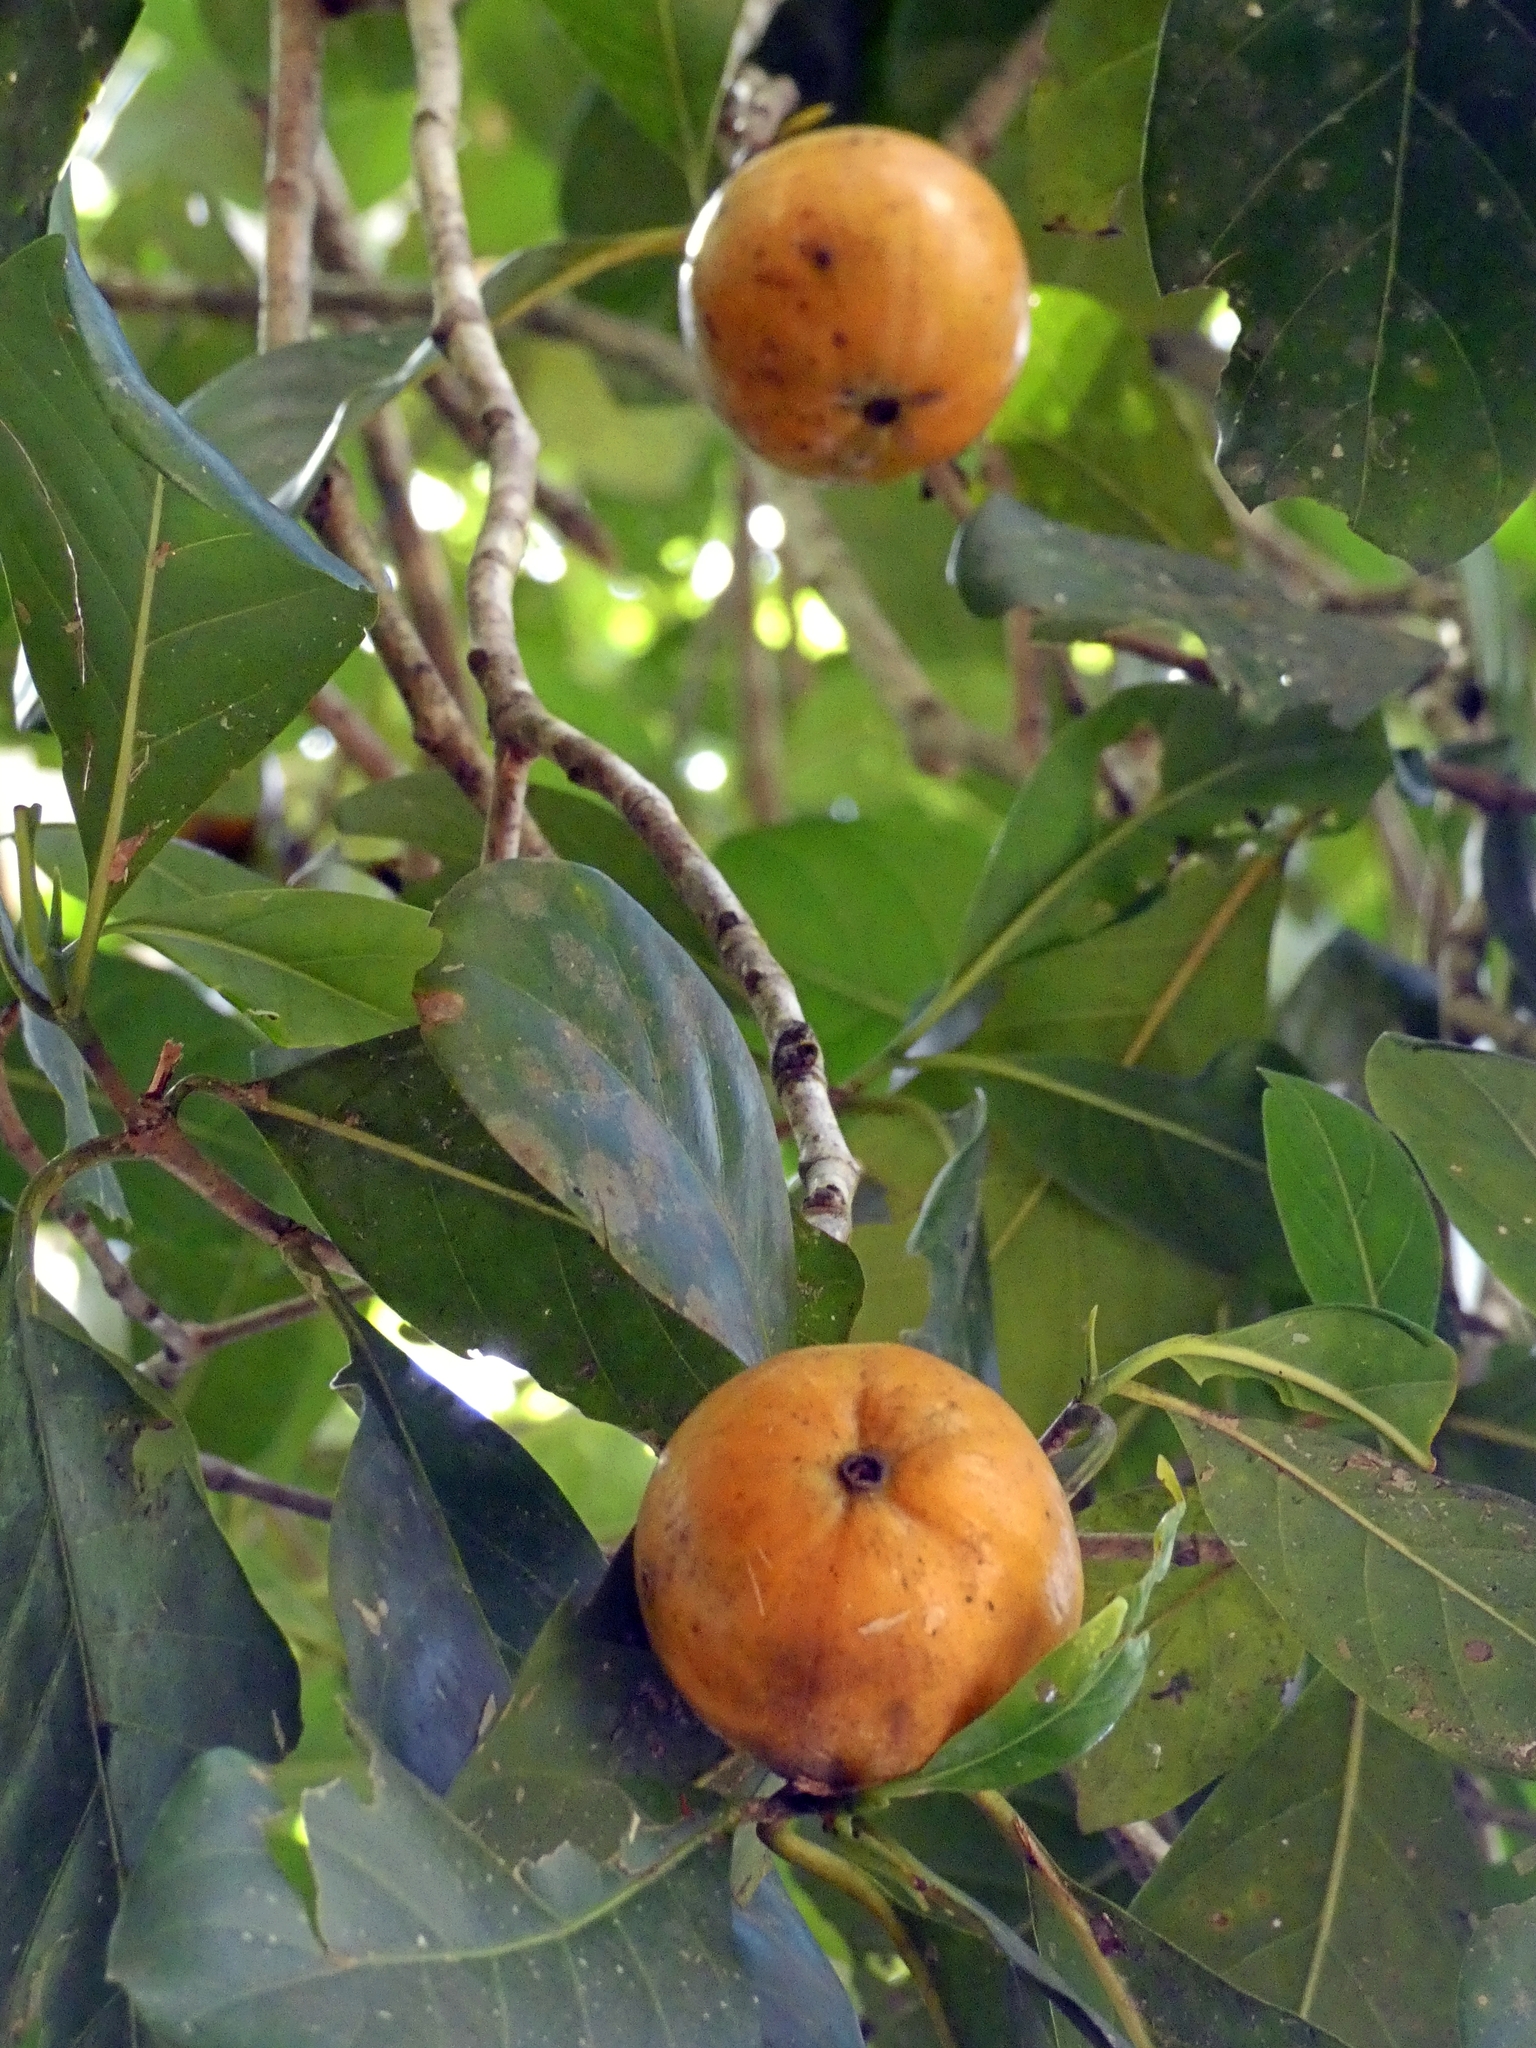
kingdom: Plantae
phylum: Tracheophyta
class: Magnoliopsida
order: Gentianales
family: Rubiaceae
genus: Atractocarpus
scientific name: Atractocarpus fitzalanii
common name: Randia
